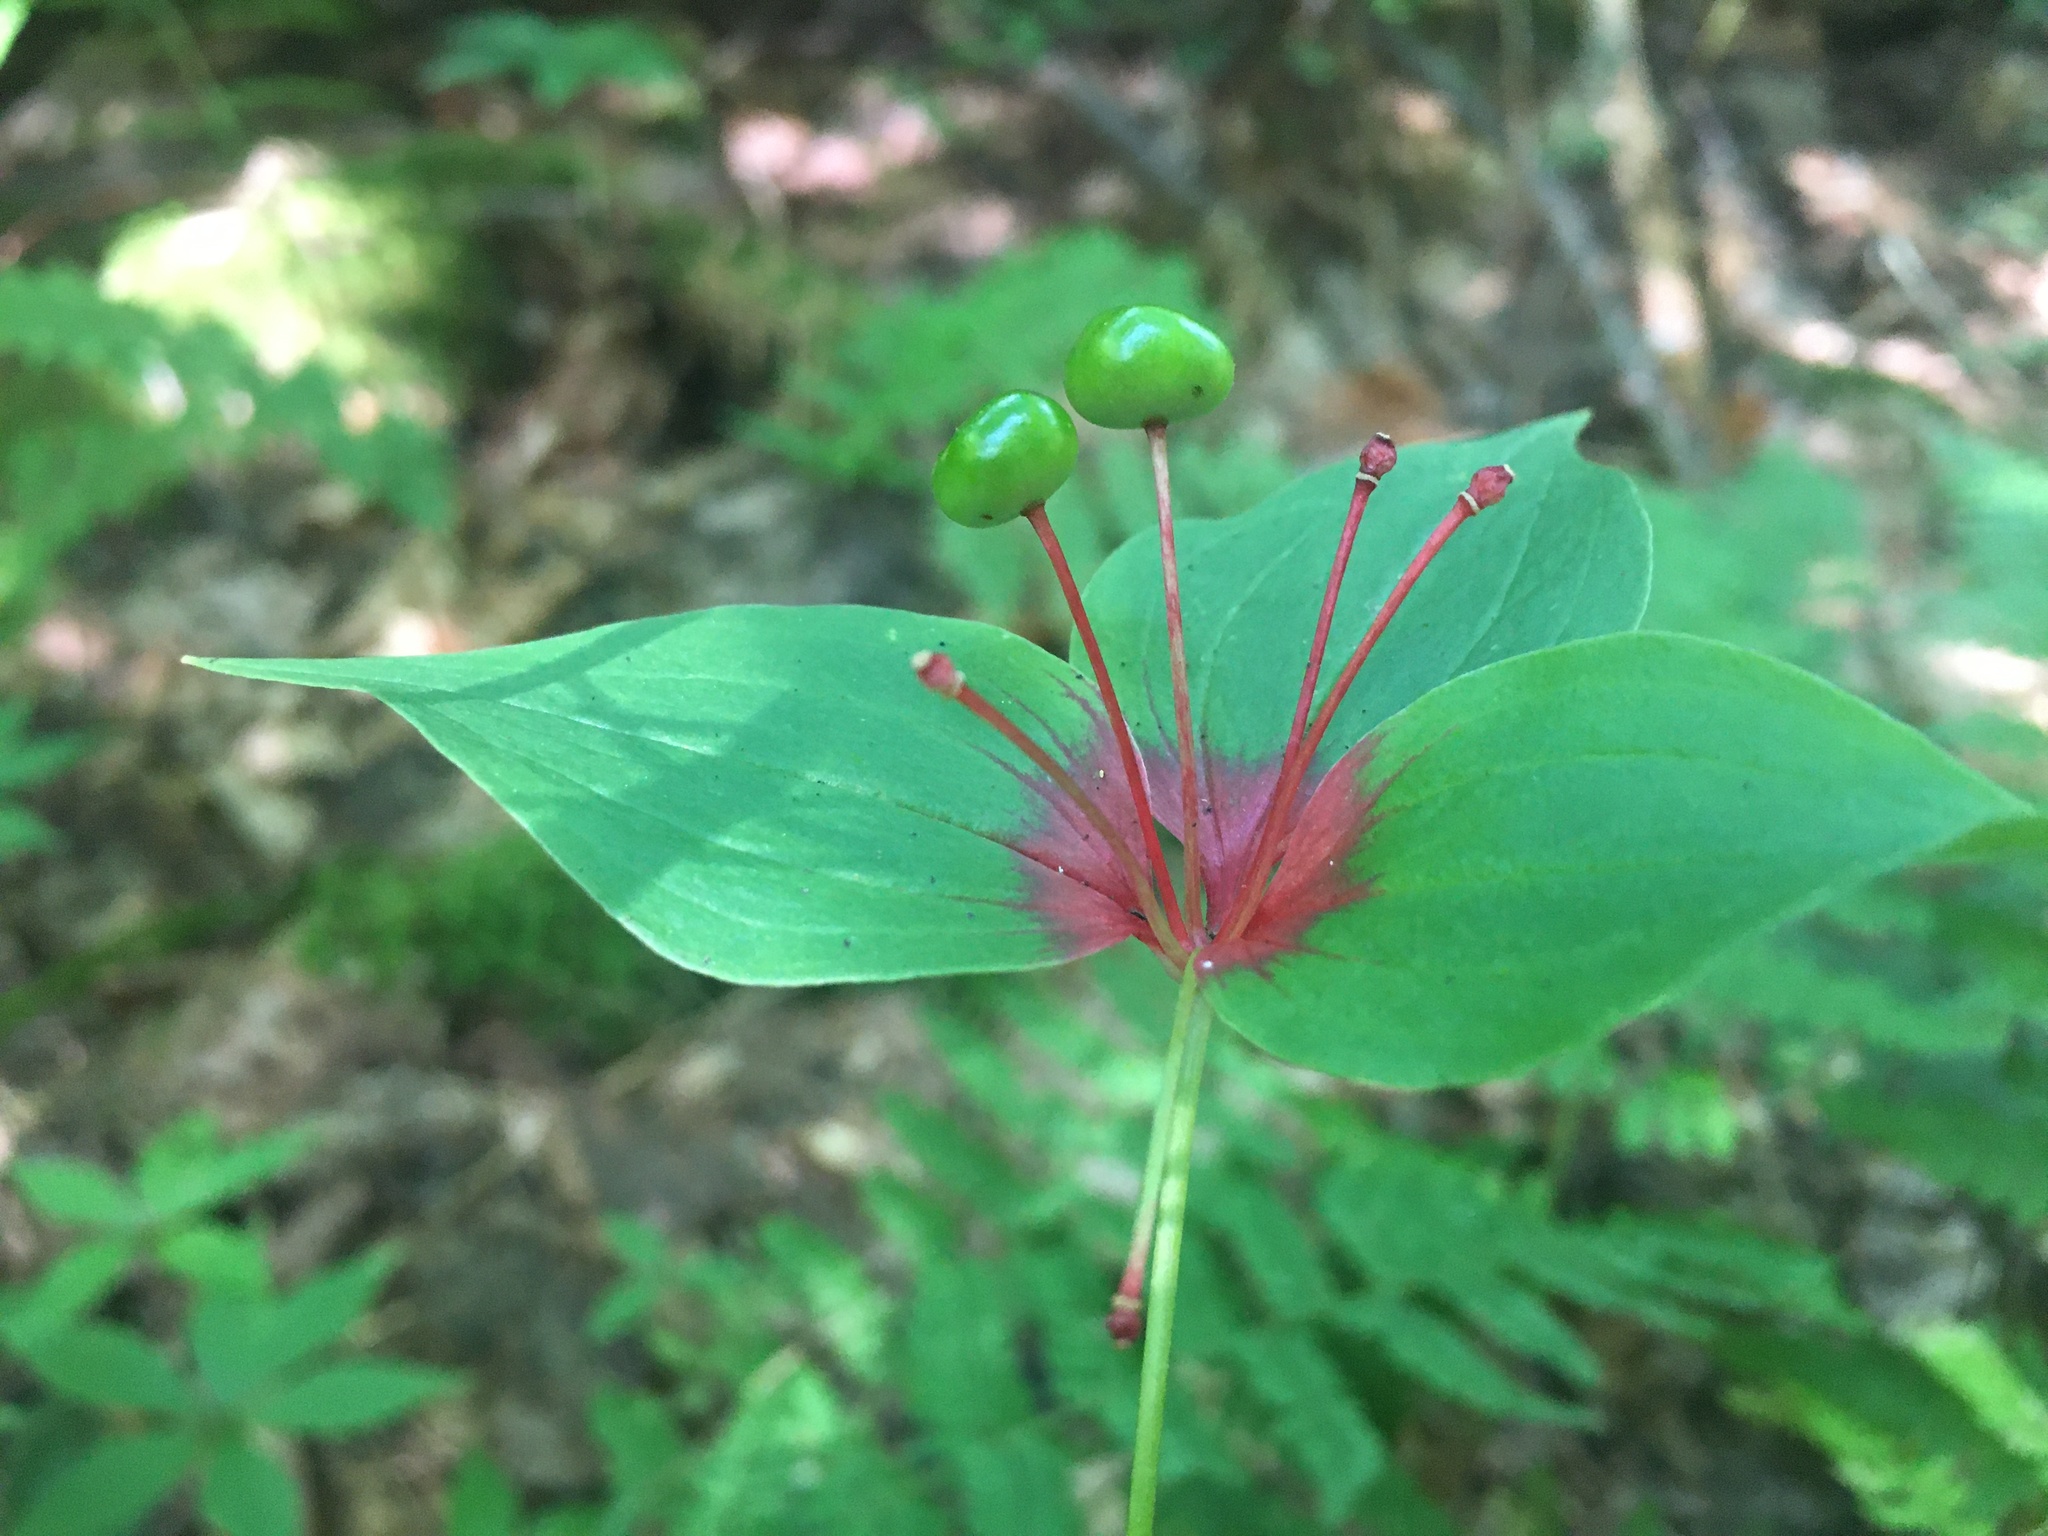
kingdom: Plantae
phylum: Tracheophyta
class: Liliopsida
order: Liliales
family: Liliaceae
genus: Medeola
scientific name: Medeola virginiana
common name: Indian cucumber-root
